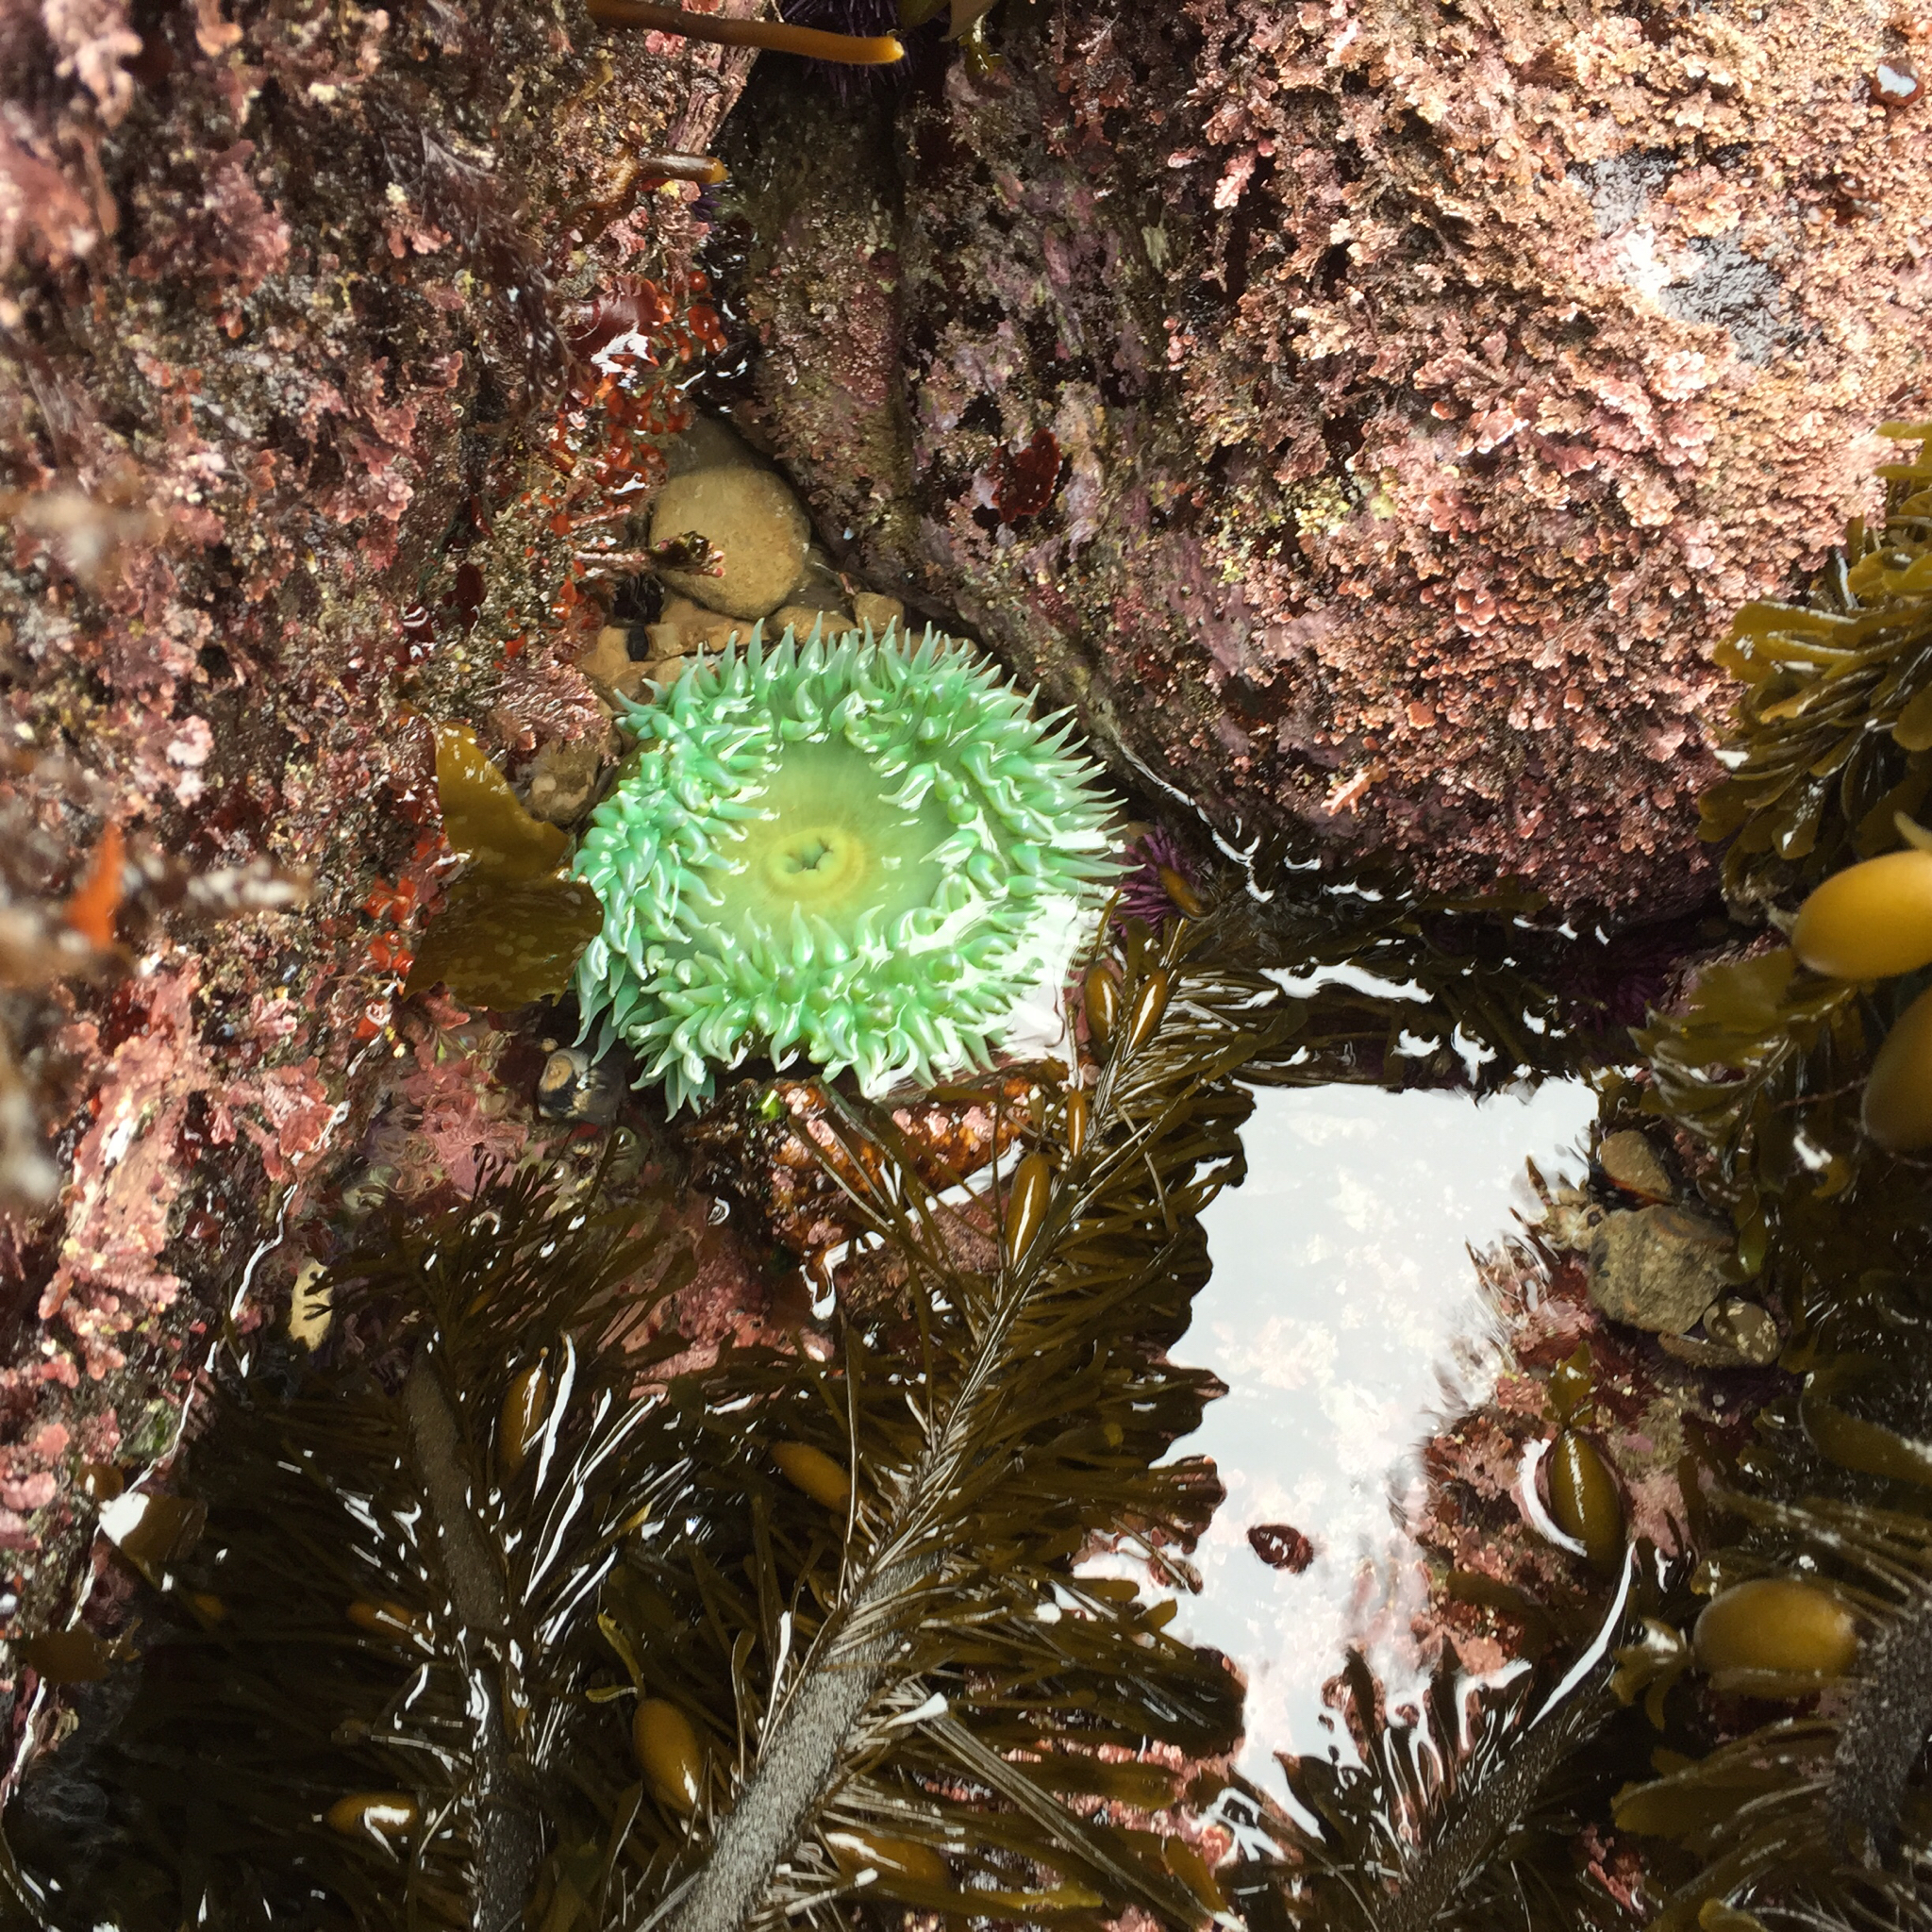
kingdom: Animalia
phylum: Cnidaria
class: Anthozoa
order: Actiniaria
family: Actiniidae
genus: Anthopleura
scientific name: Anthopleura xanthogrammica
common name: Giant green anemone
